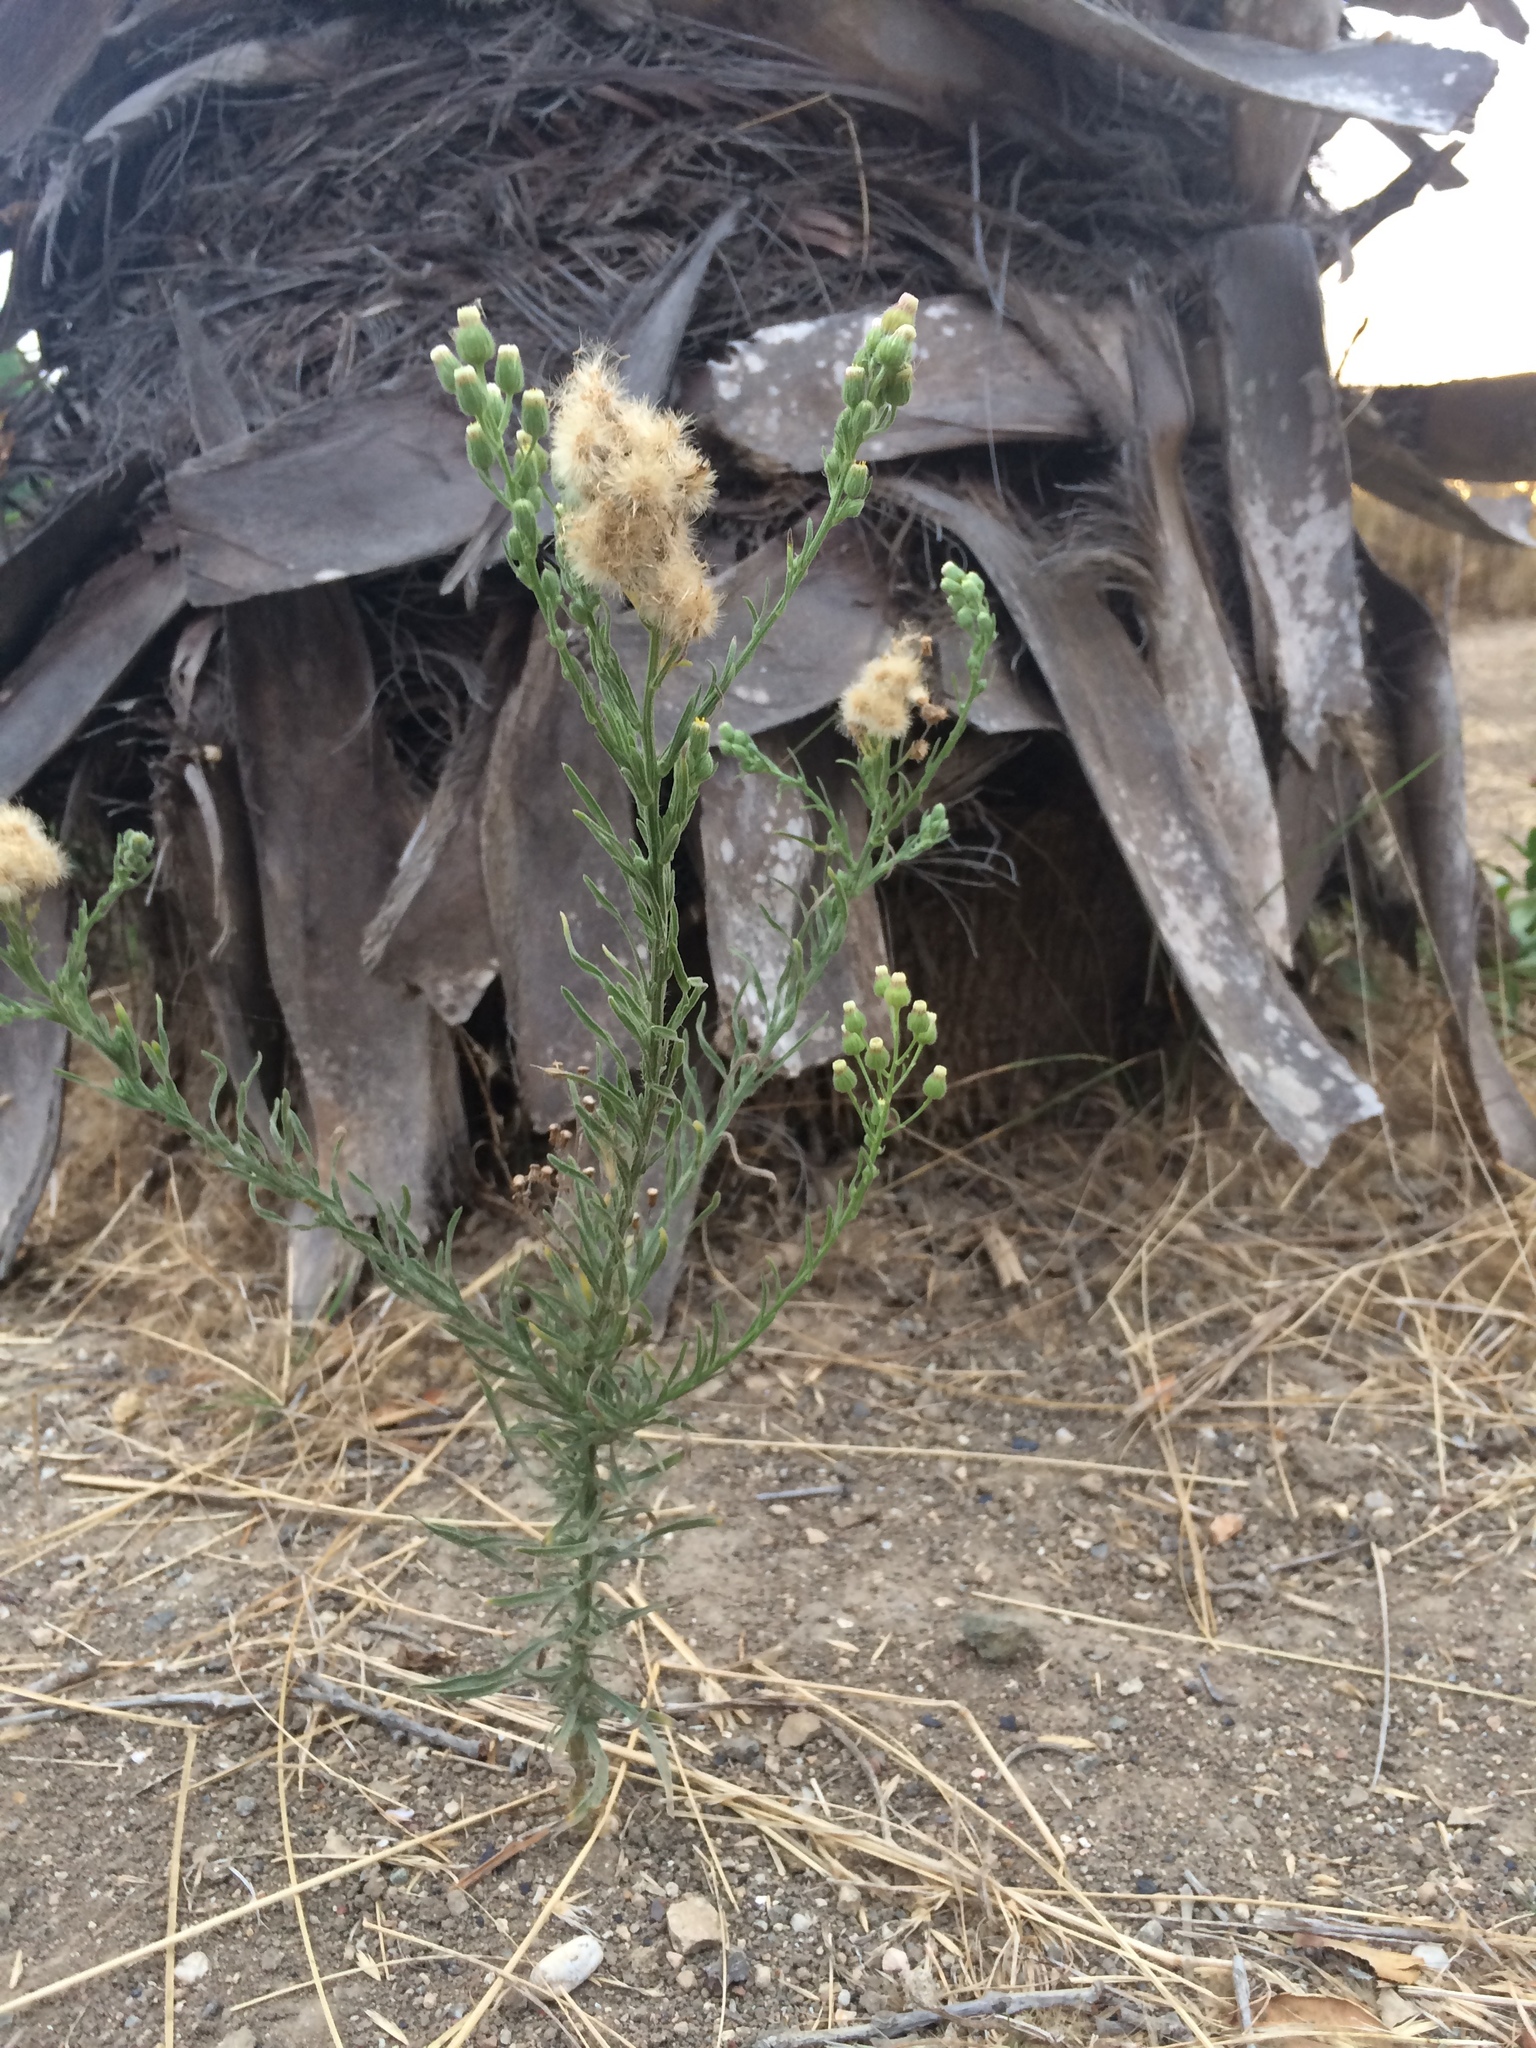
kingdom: Plantae
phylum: Tracheophyta
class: Magnoliopsida
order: Asterales
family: Asteraceae
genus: Erigeron
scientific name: Erigeron bonariensis
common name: Argentine fleabane
